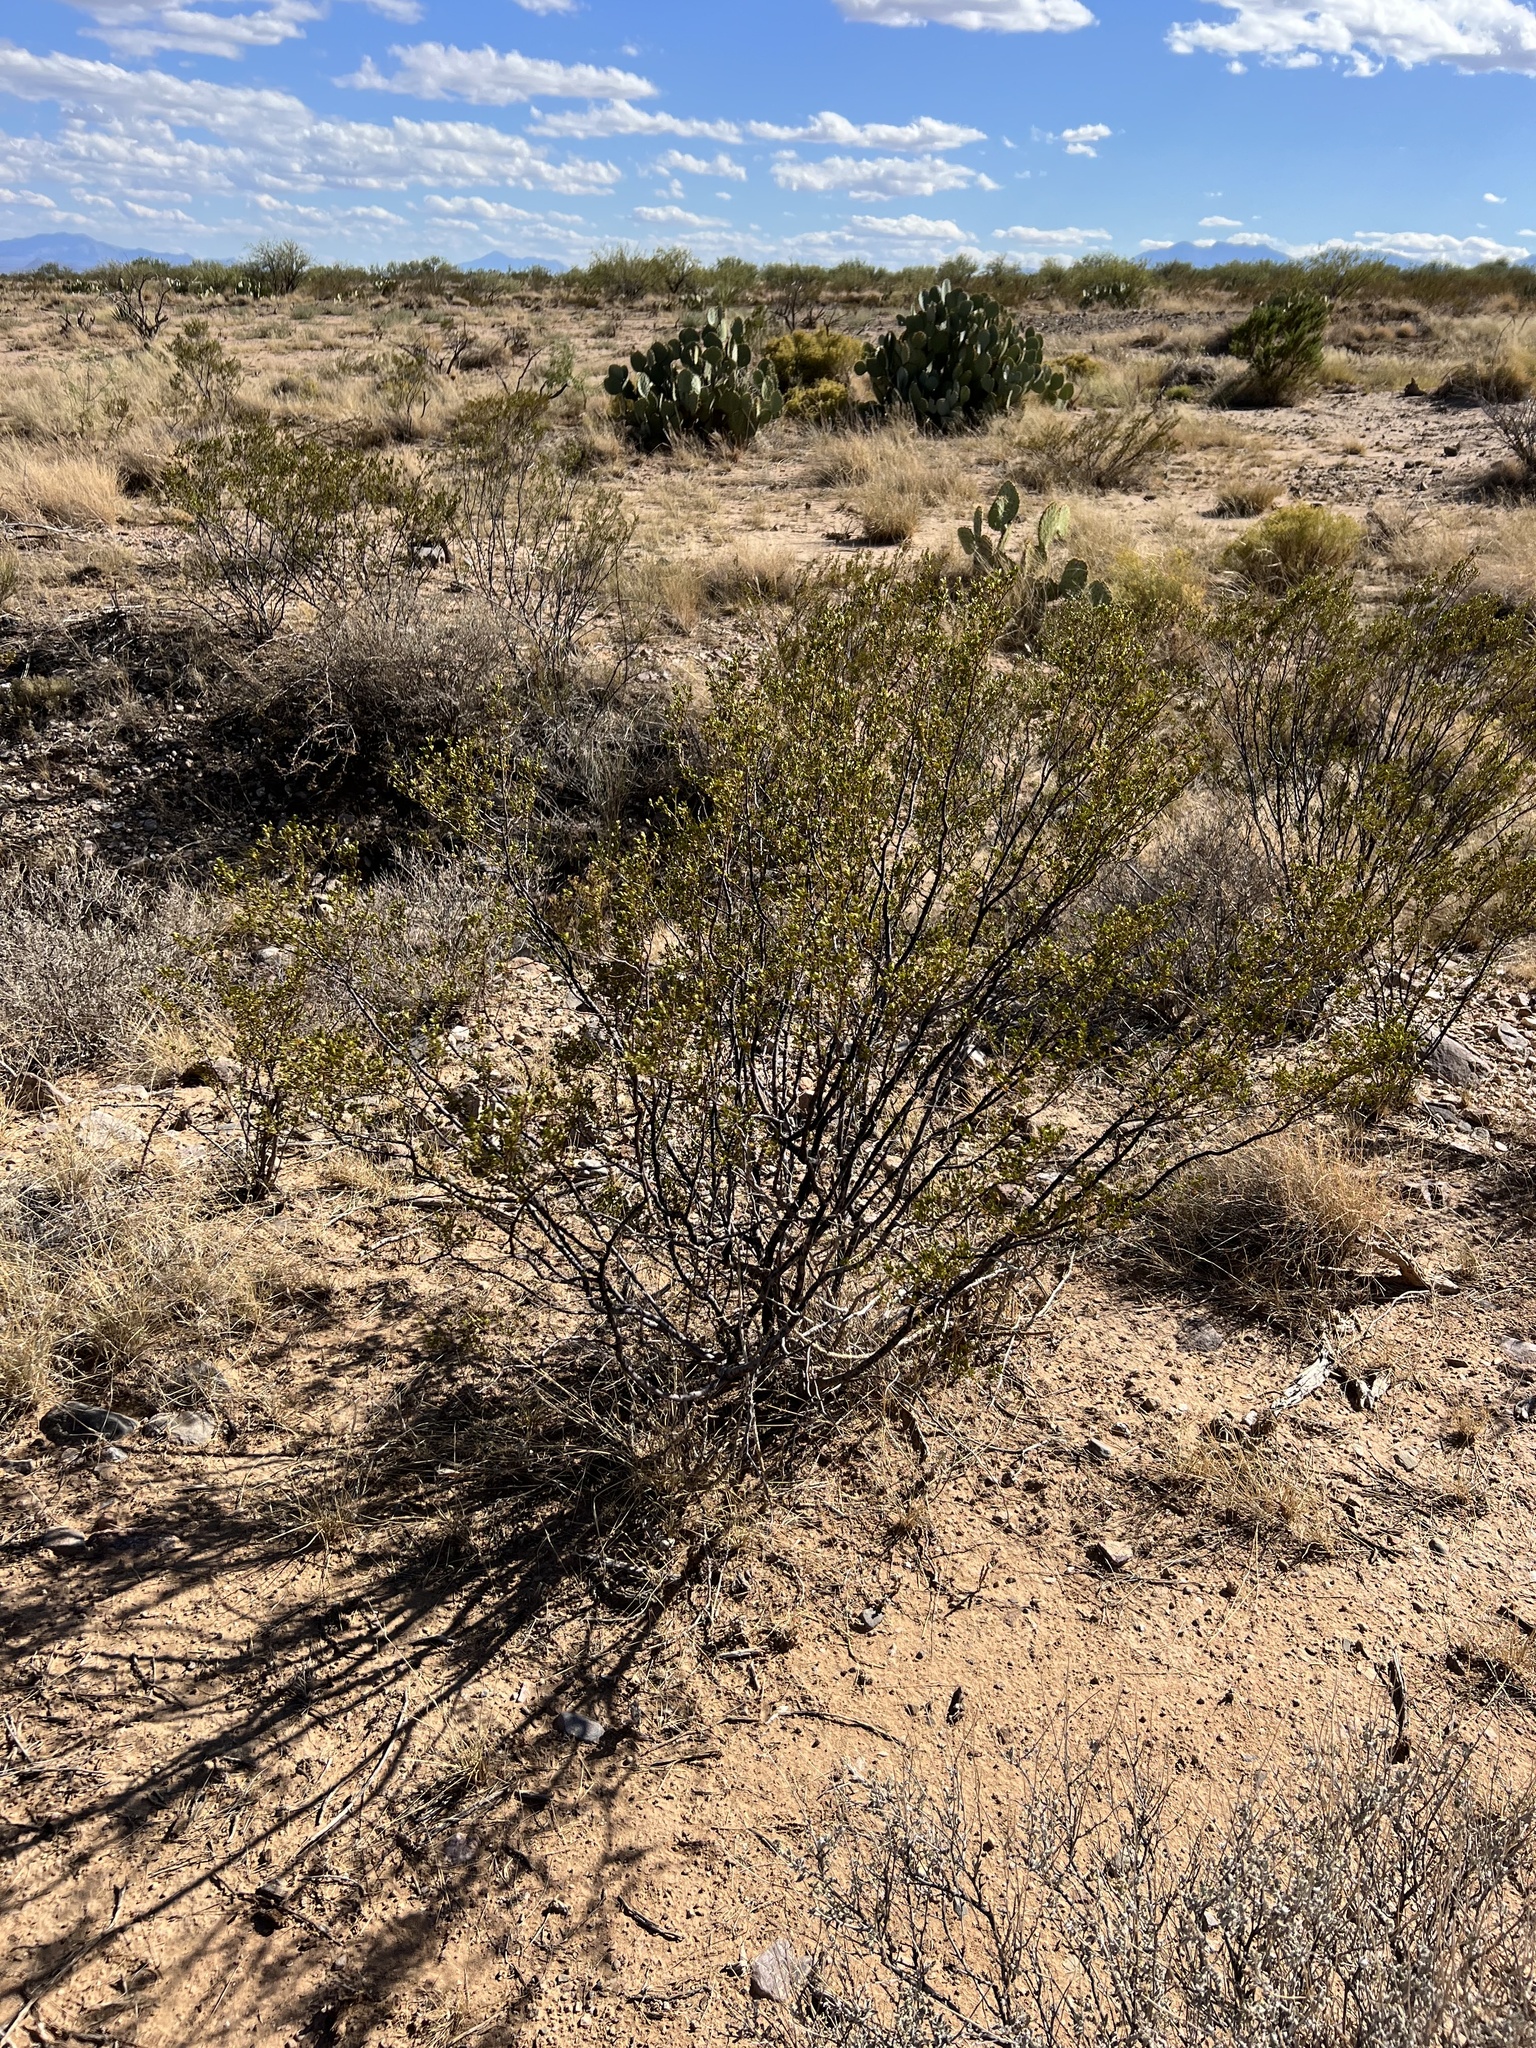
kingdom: Plantae
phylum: Tracheophyta
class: Magnoliopsida
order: Zygophyllales
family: Zygophyllaceae
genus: Larrea
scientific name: Larrea tridentata
